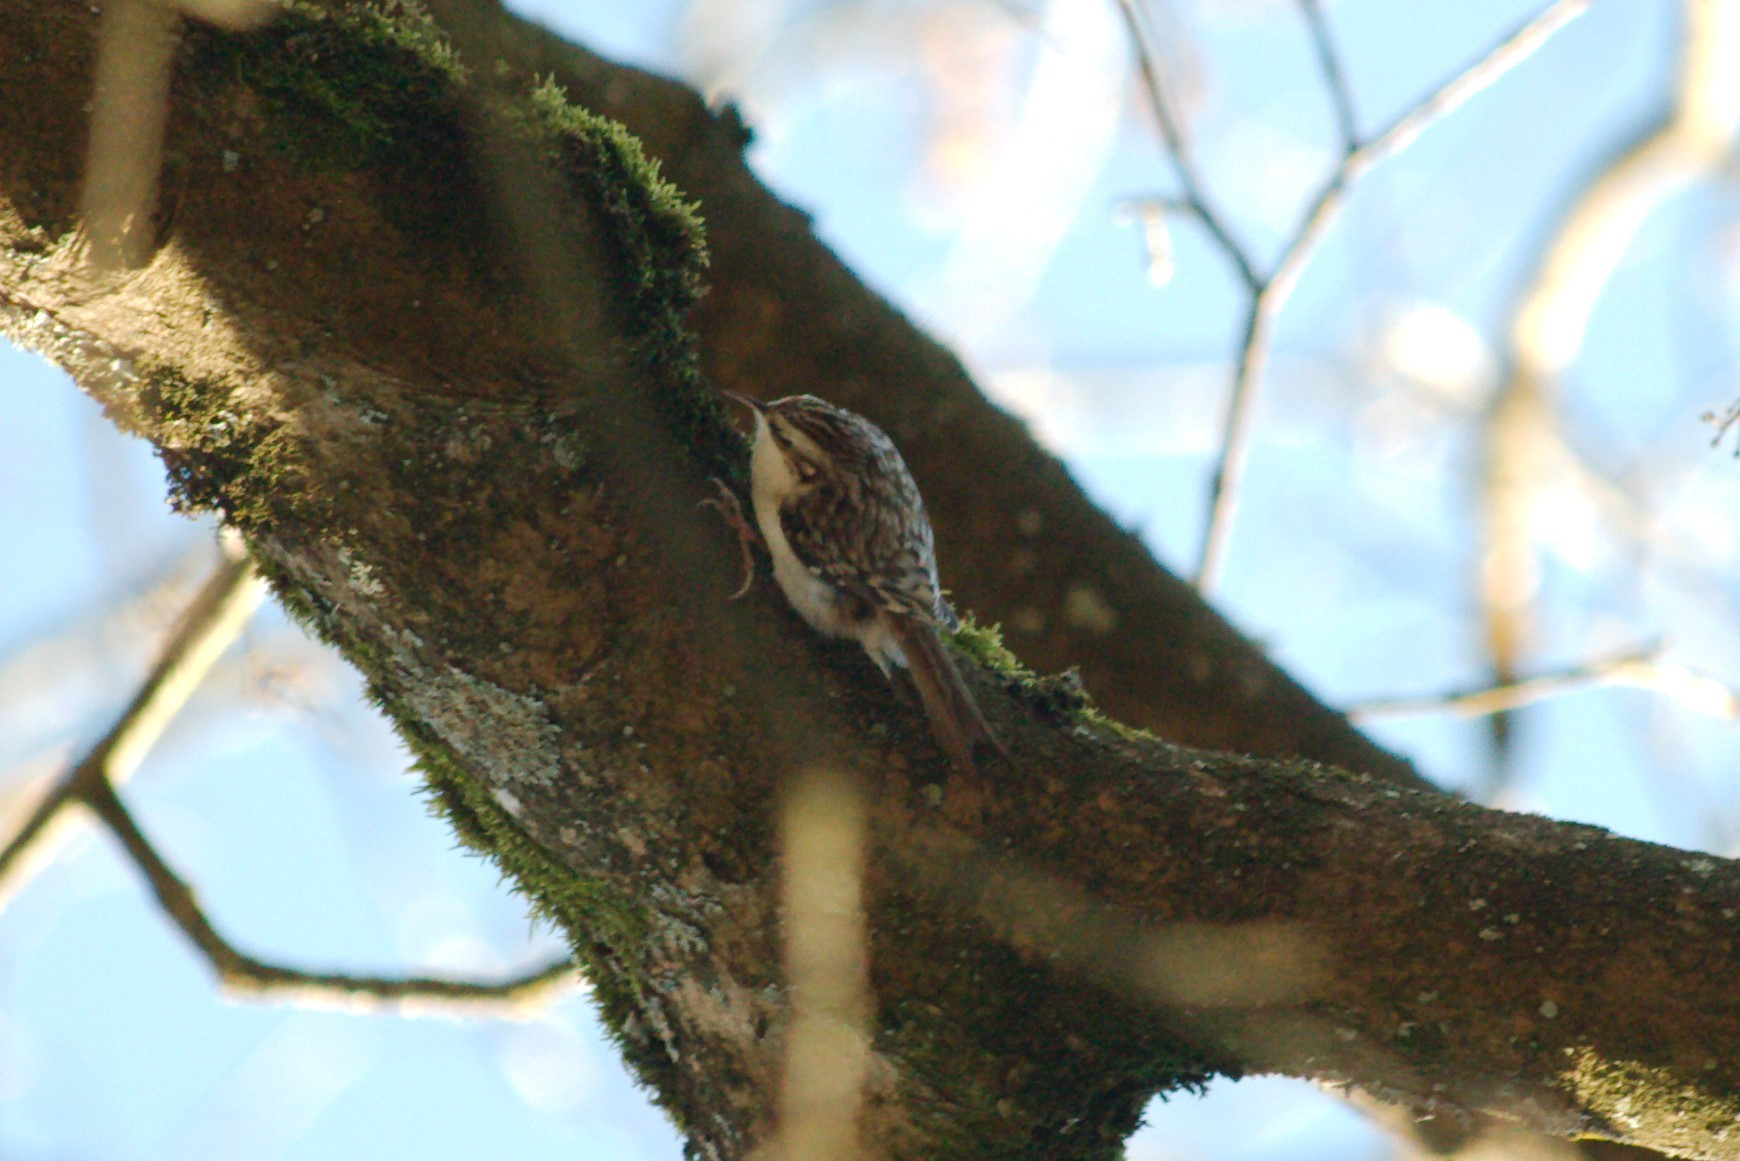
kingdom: Animalia
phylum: Chordata
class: Aves
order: Passeriformes
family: Certhiidae
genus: Certhia
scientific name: Certhia familiaris
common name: Eurasian treecreeper
